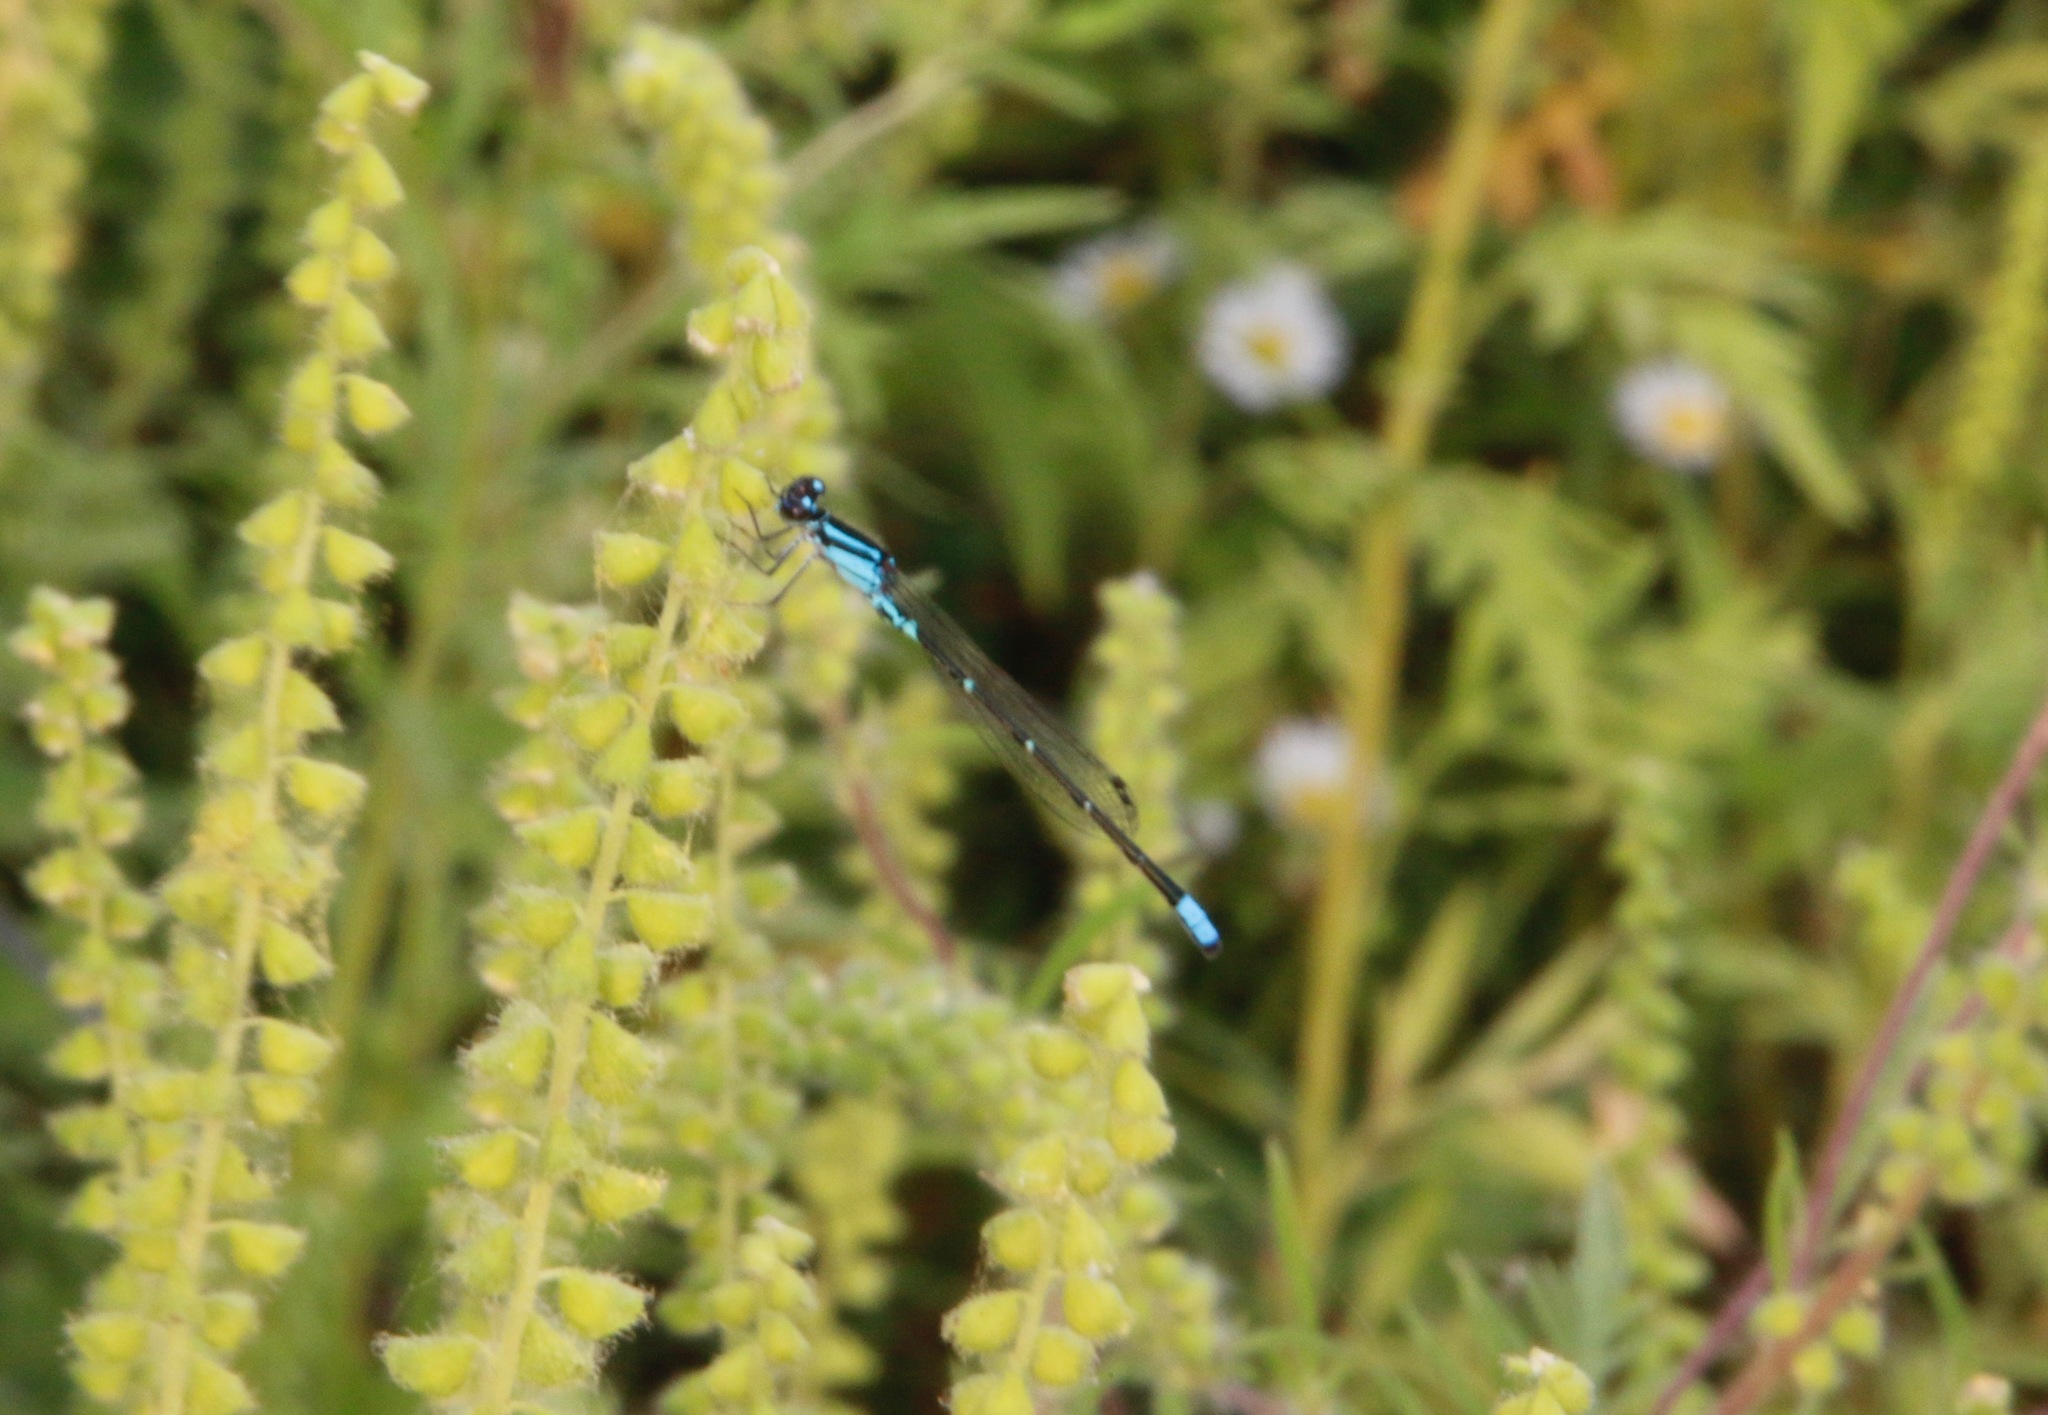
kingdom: Animalia
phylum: Arthropoda
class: Insecta
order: Odonata
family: Coenagrionidae
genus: Enallagma
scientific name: Enallagma geminatum
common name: Skimming bluet
